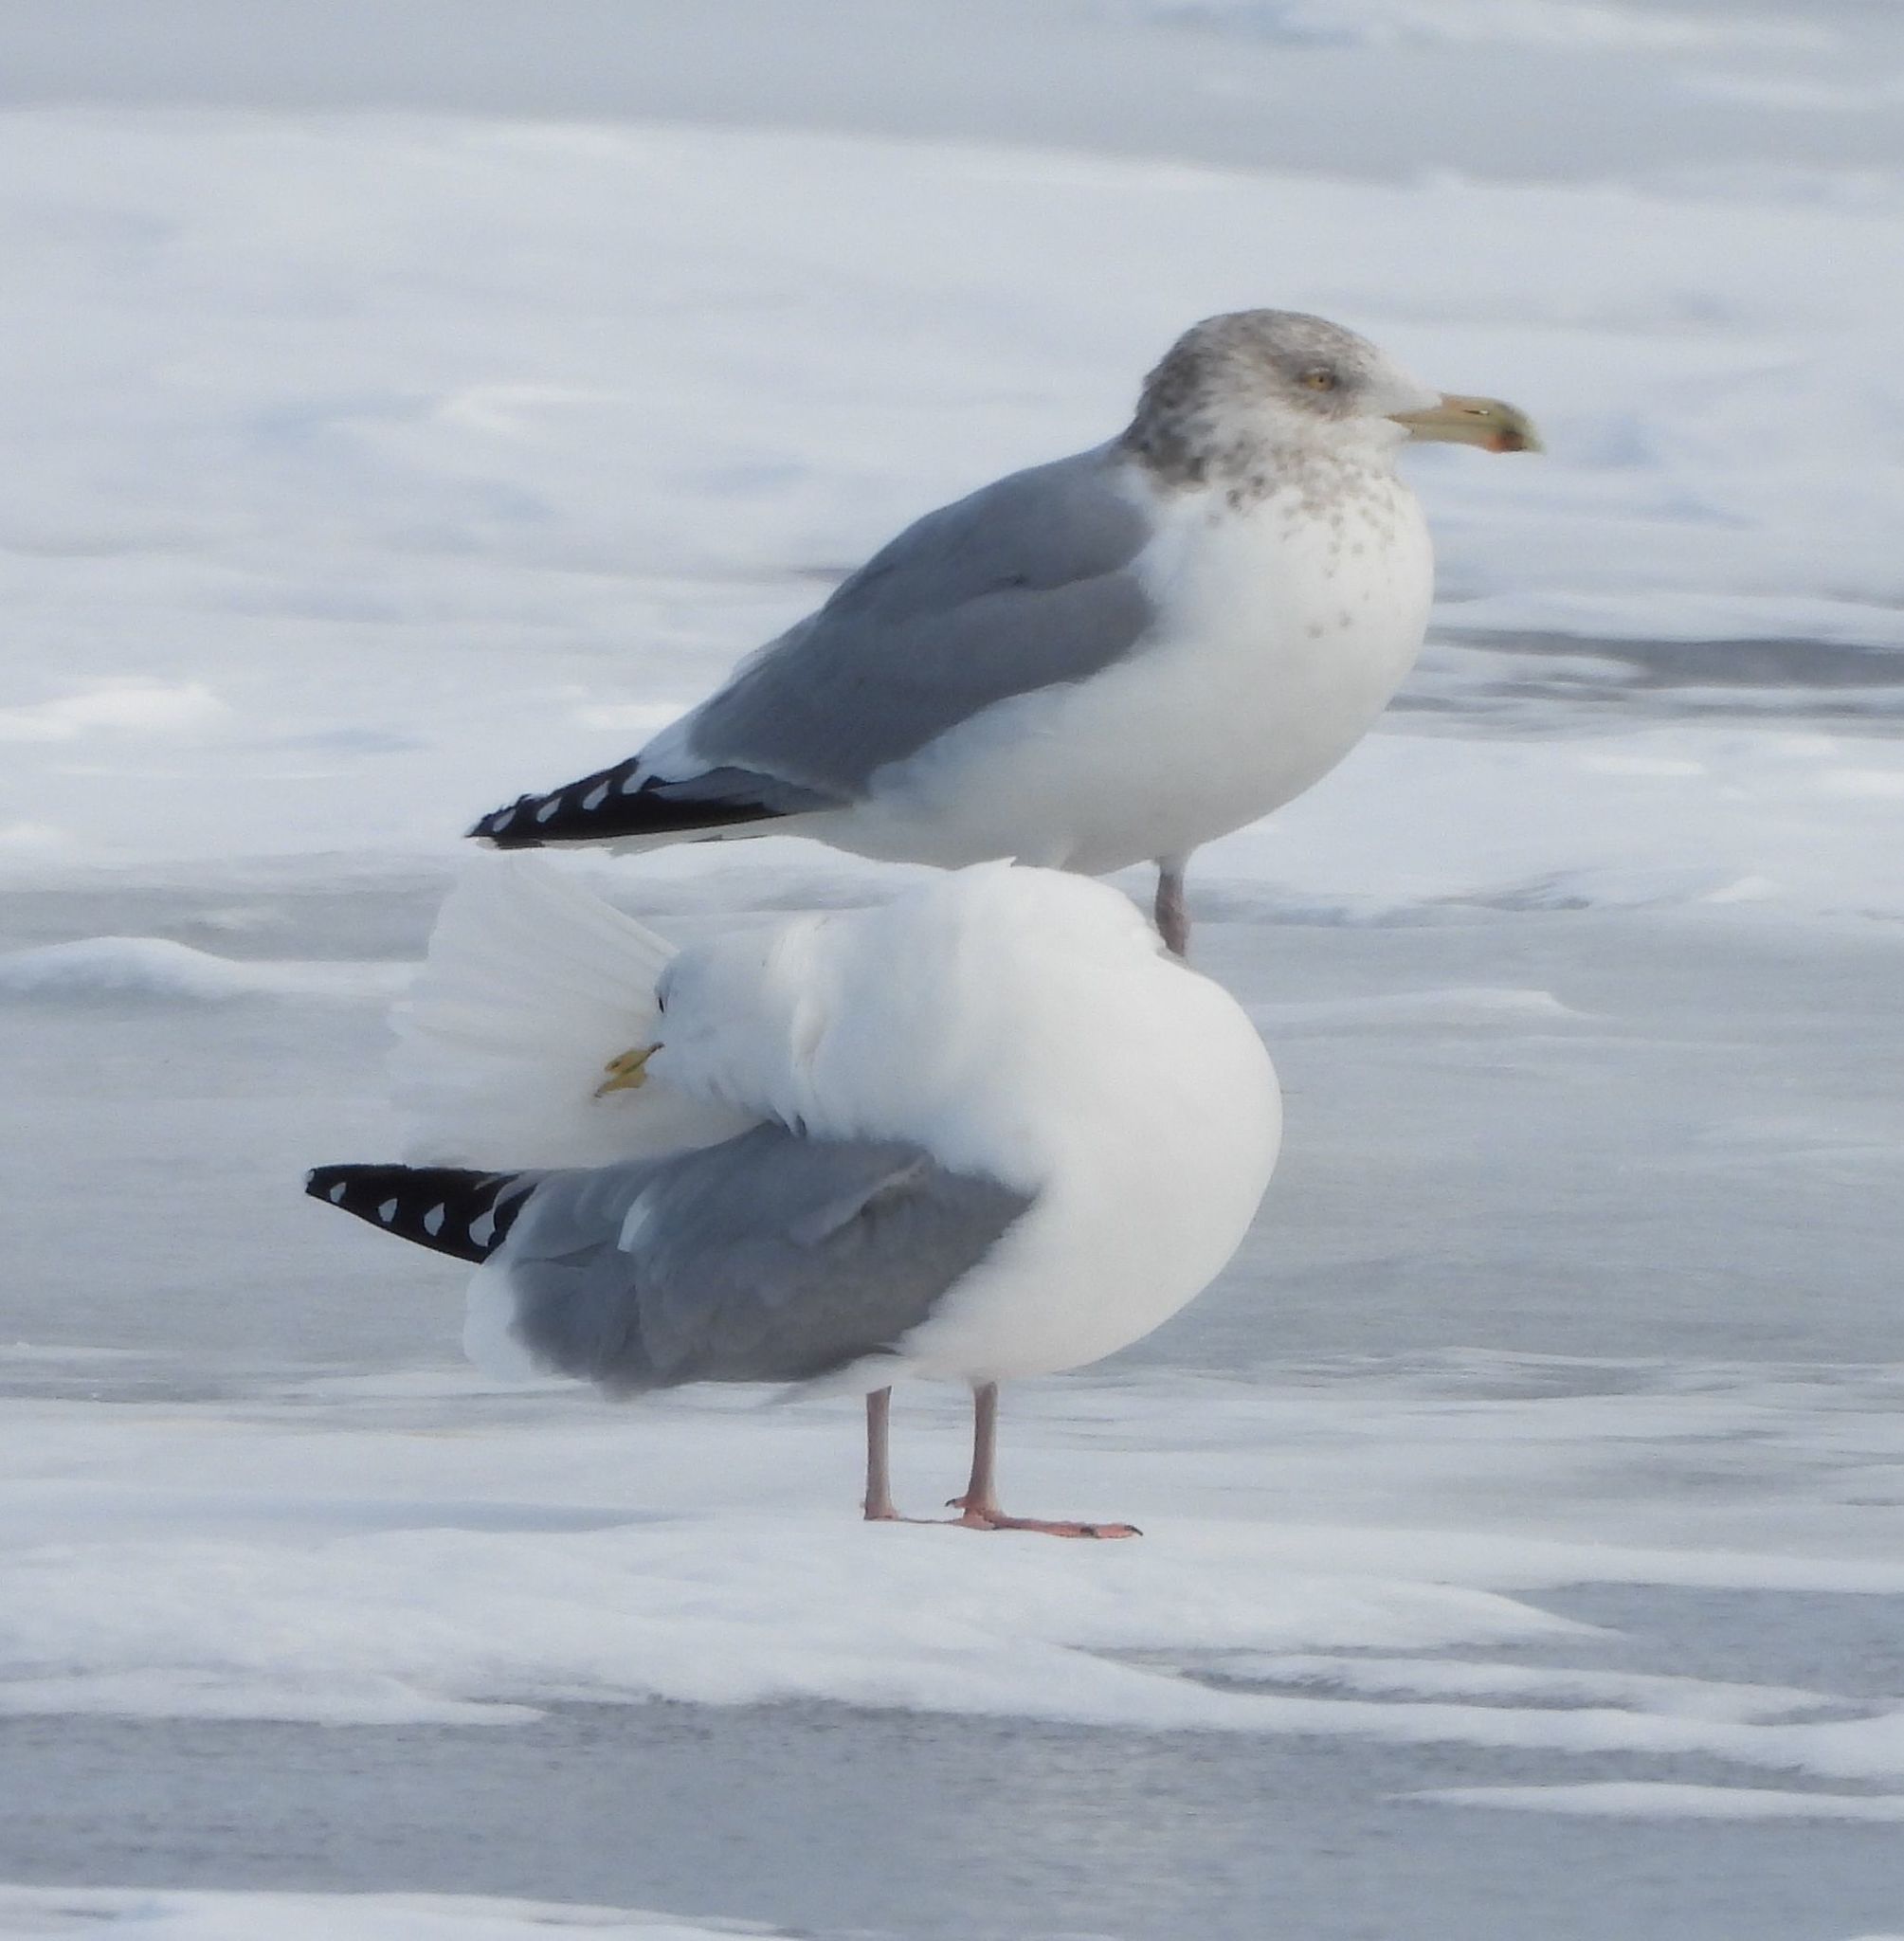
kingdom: Animalia
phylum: Chordata
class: Aves
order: Charadriiformes
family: Laridae
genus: Larus
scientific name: Larus argentatus
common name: Herring gull
